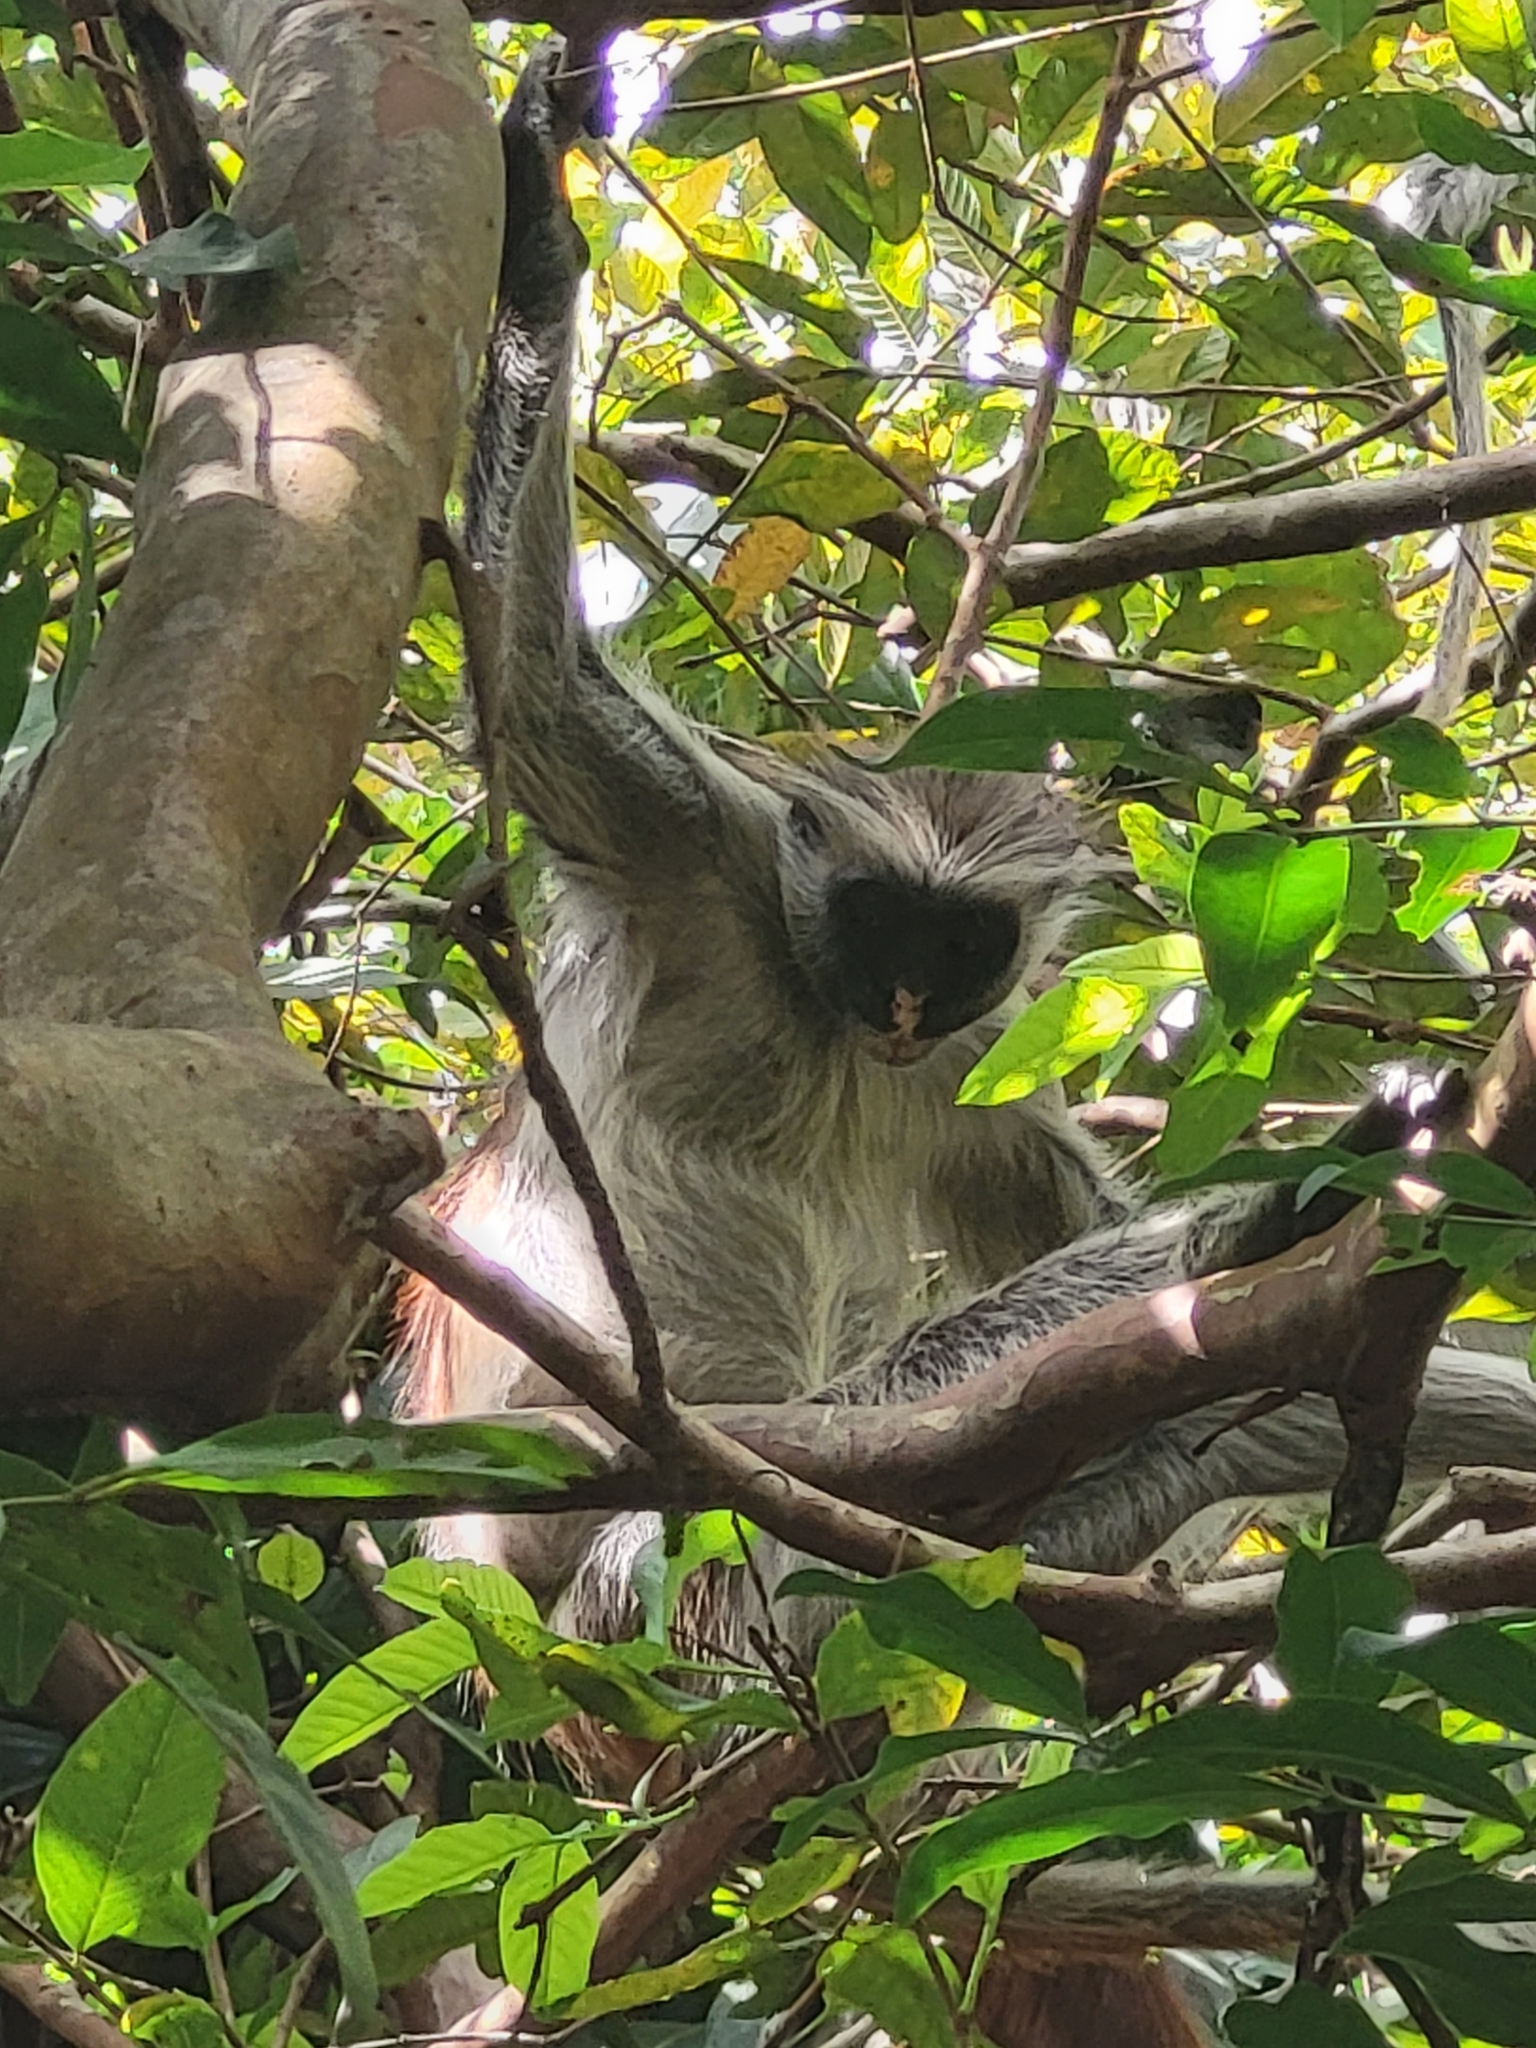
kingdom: Animalia
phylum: Chordata
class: Mammalia
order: Primates
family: Cercopithecidae
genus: Piliocolobus
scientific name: Piliocolobus kirkii
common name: Zanzibar red colobus
